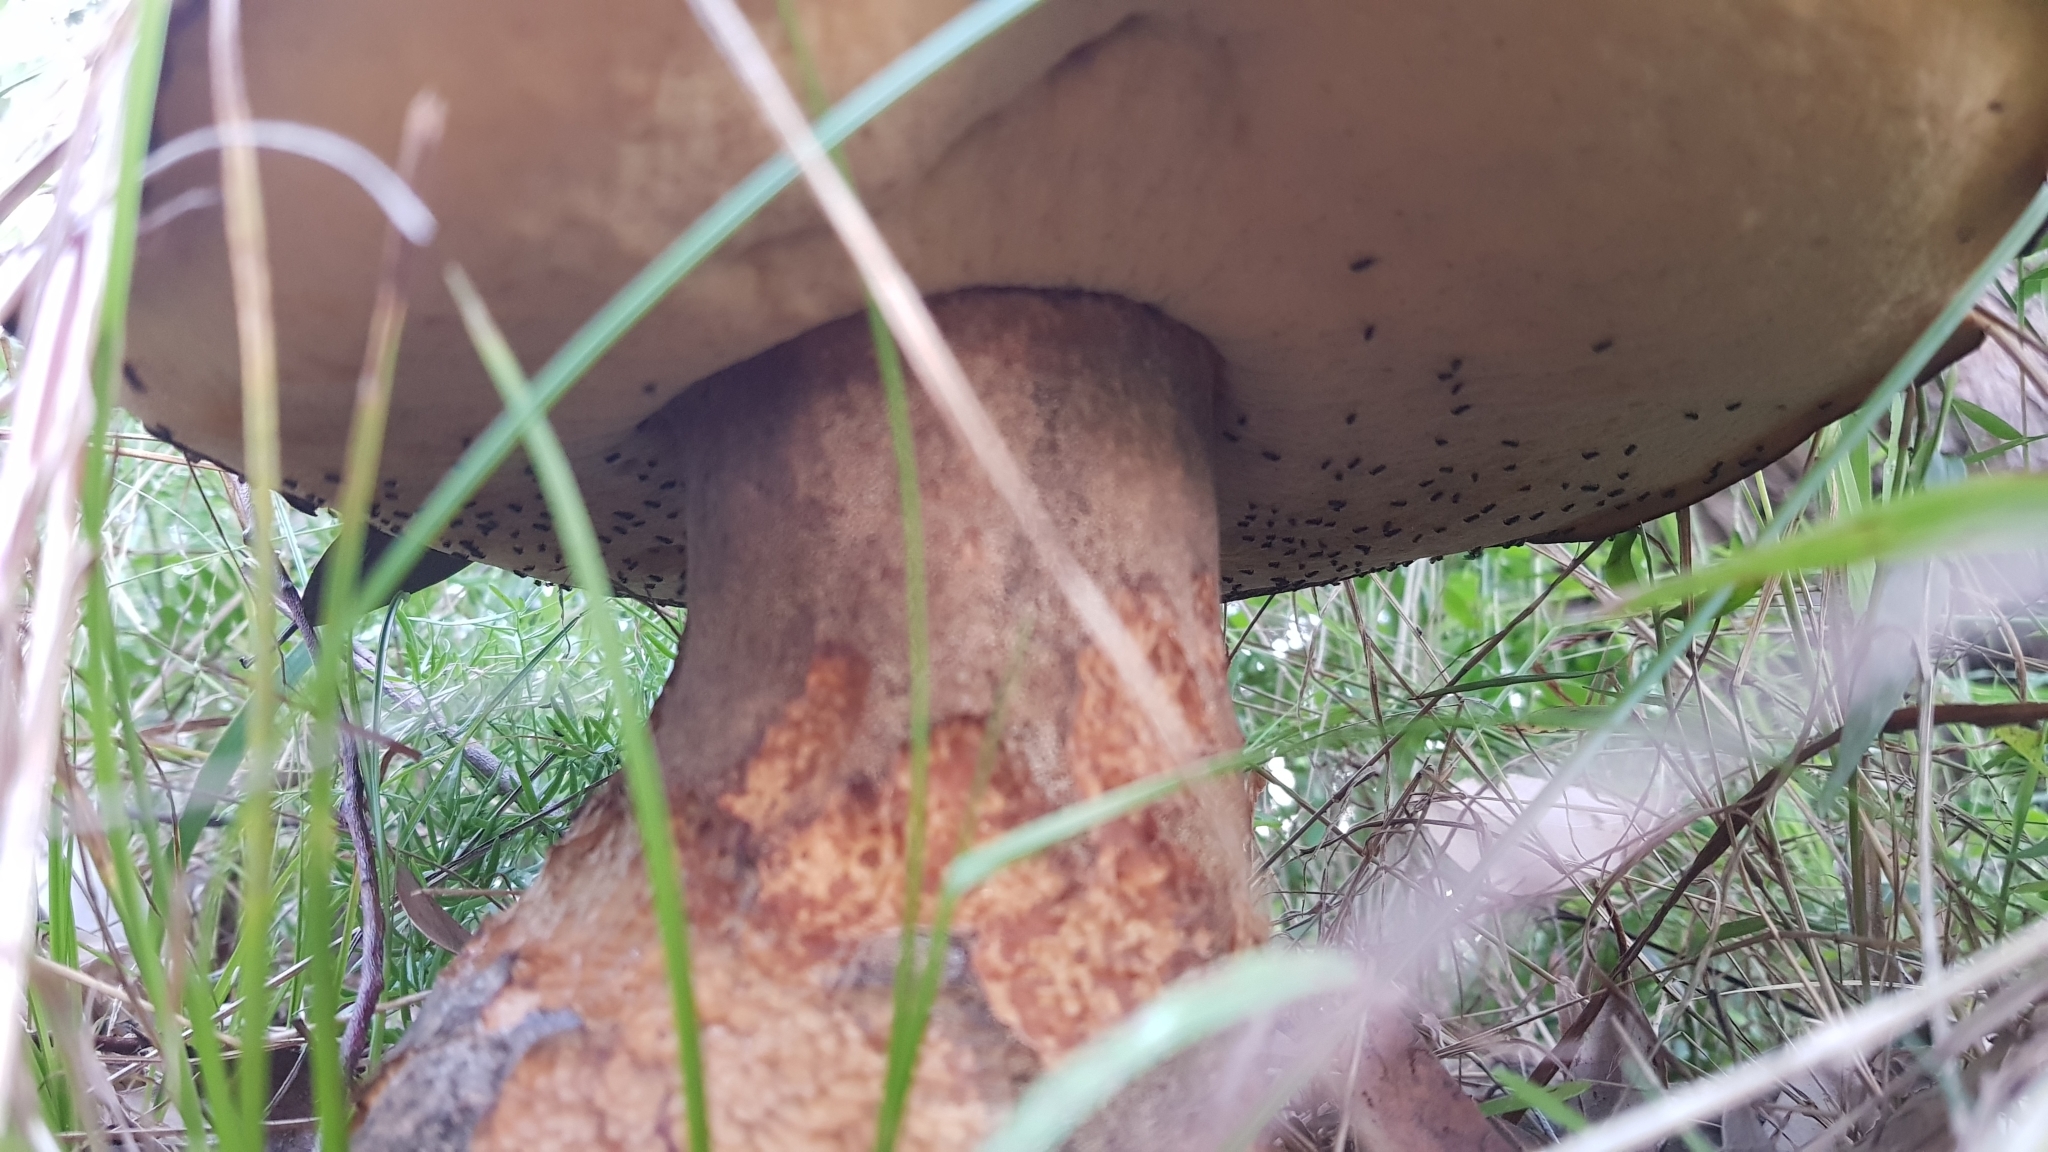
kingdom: Fungi
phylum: Basidiomycota
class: Agaricomycetes
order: Boletales
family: Boletinellaceae
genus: Phlebopus
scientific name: Phlebopus marginatus
